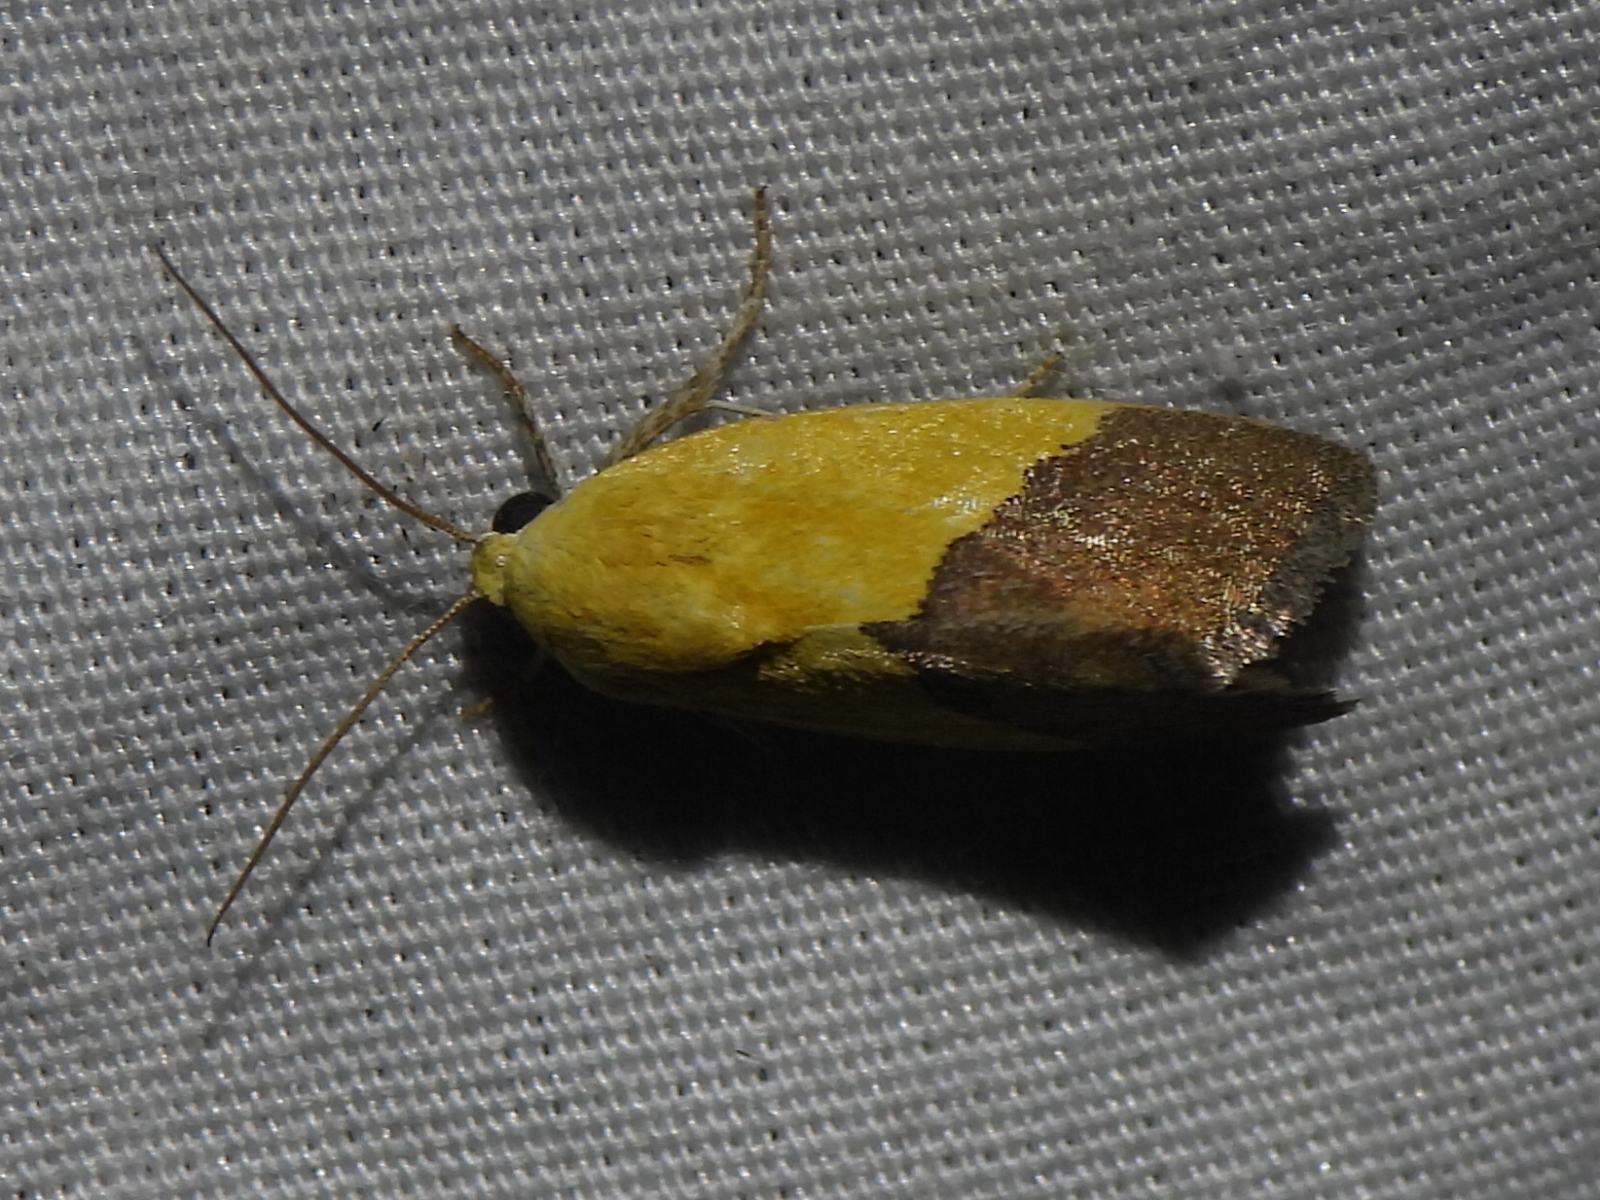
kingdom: Animalia
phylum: Arthropoda
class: Insecta
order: Lepidoptera
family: Noctuidae
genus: Acontia
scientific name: Acontia semiflava
